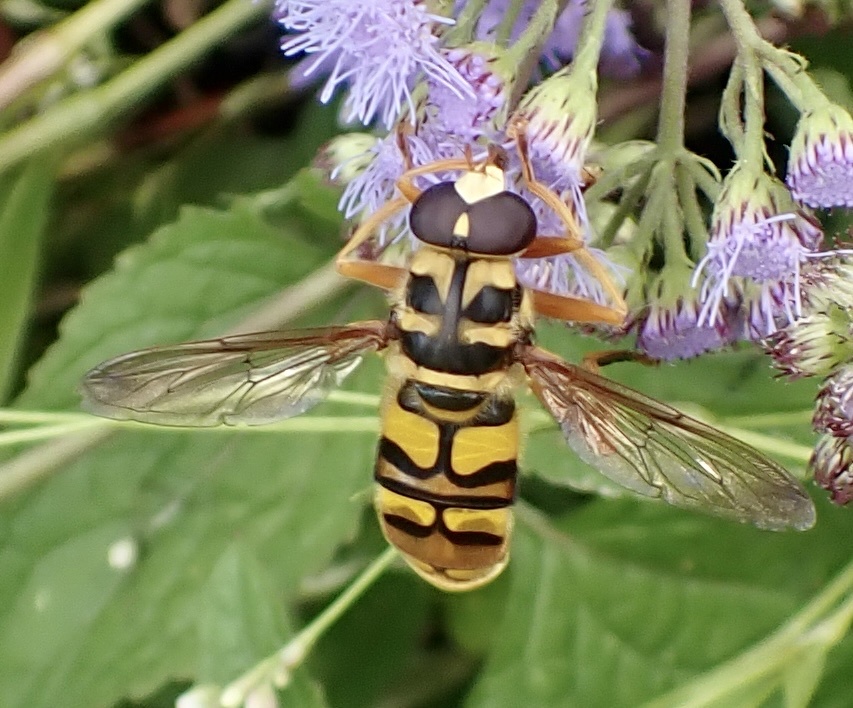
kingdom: Animalia
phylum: Arthropoda
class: Insecta
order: Diptera
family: Syrphidae
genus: Milesia
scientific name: Milesia virginiensis
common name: Virginia giant
